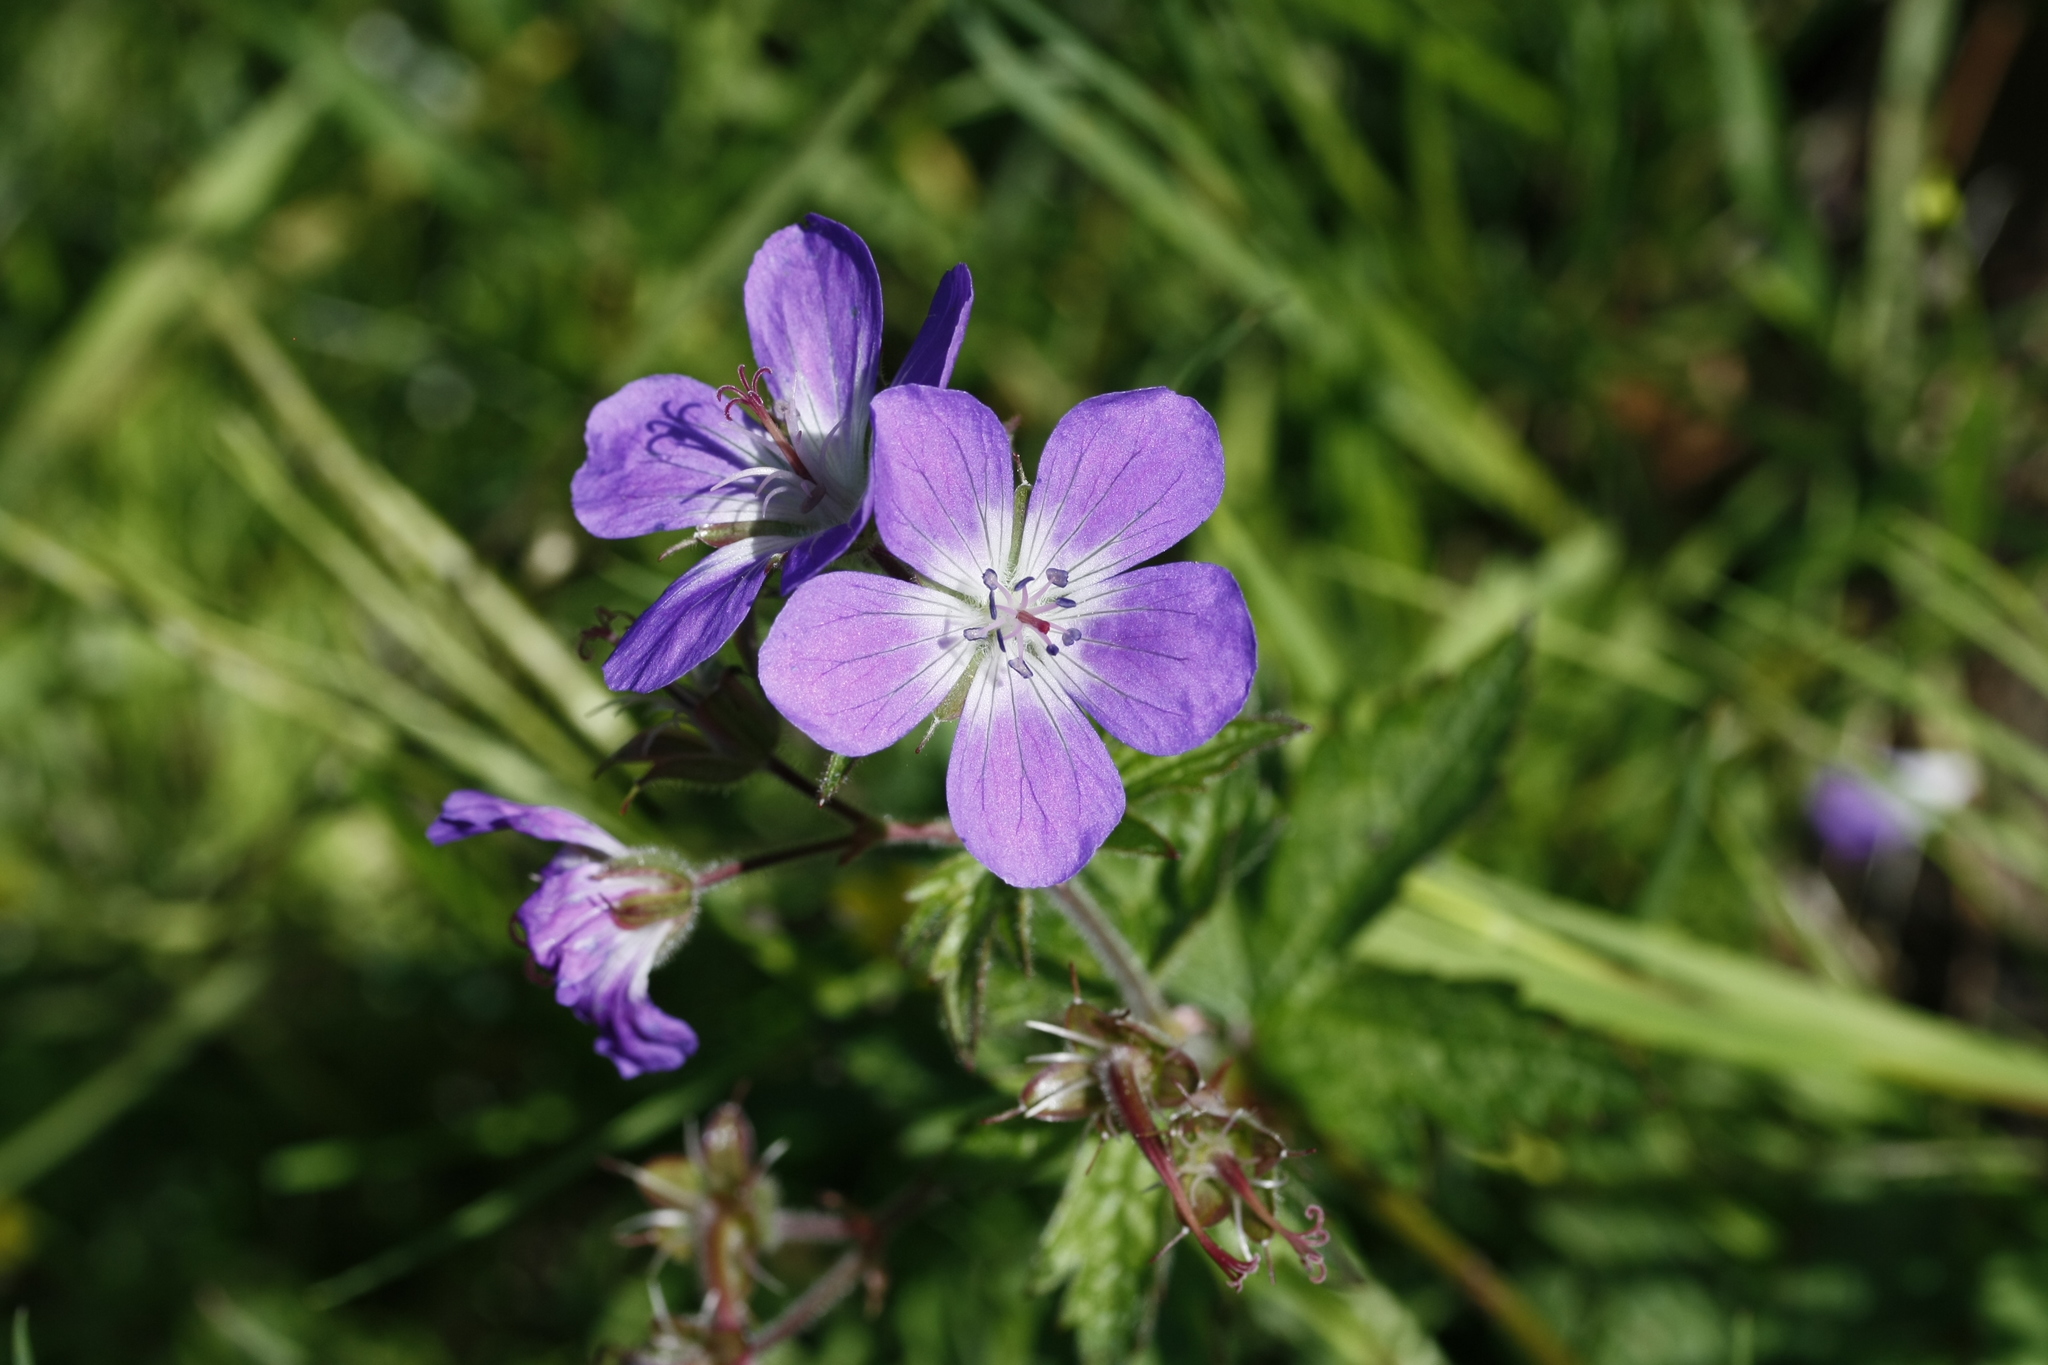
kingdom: Plantae
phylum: Tracheophyta
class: Magnoliopsida
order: Geraniales
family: Geraniaceae
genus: Geranium
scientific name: Geranium pratense
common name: Meadow crane's-bill
